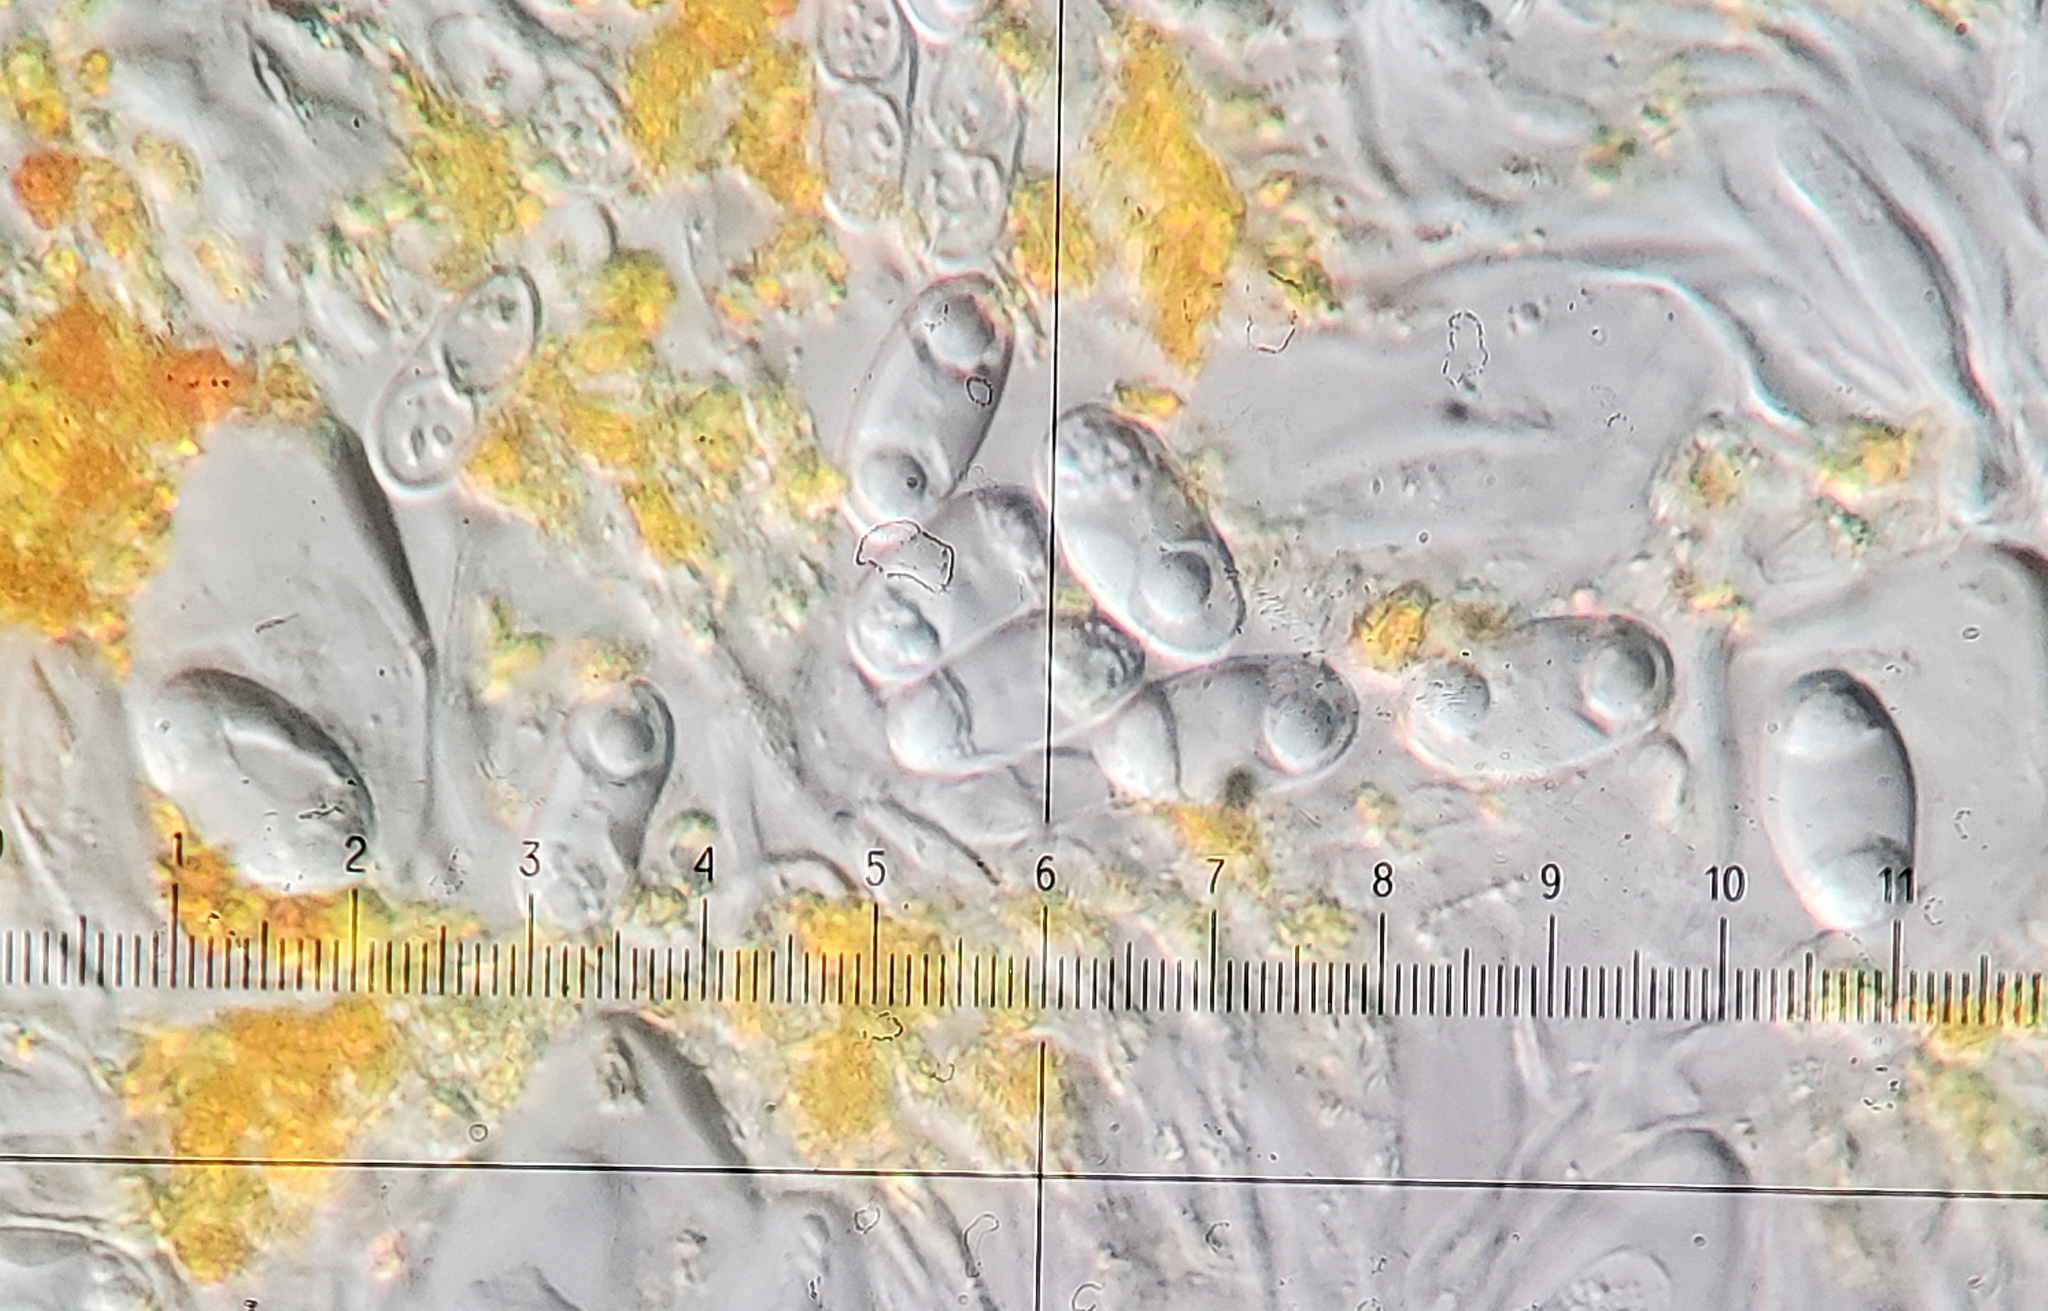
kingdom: Fungi
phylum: Ascomycota
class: Lecanoromycetes
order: Teloschistales
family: Teloschistaceae
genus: Athallia
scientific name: Athallia holocarpa
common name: Firedot lichen
